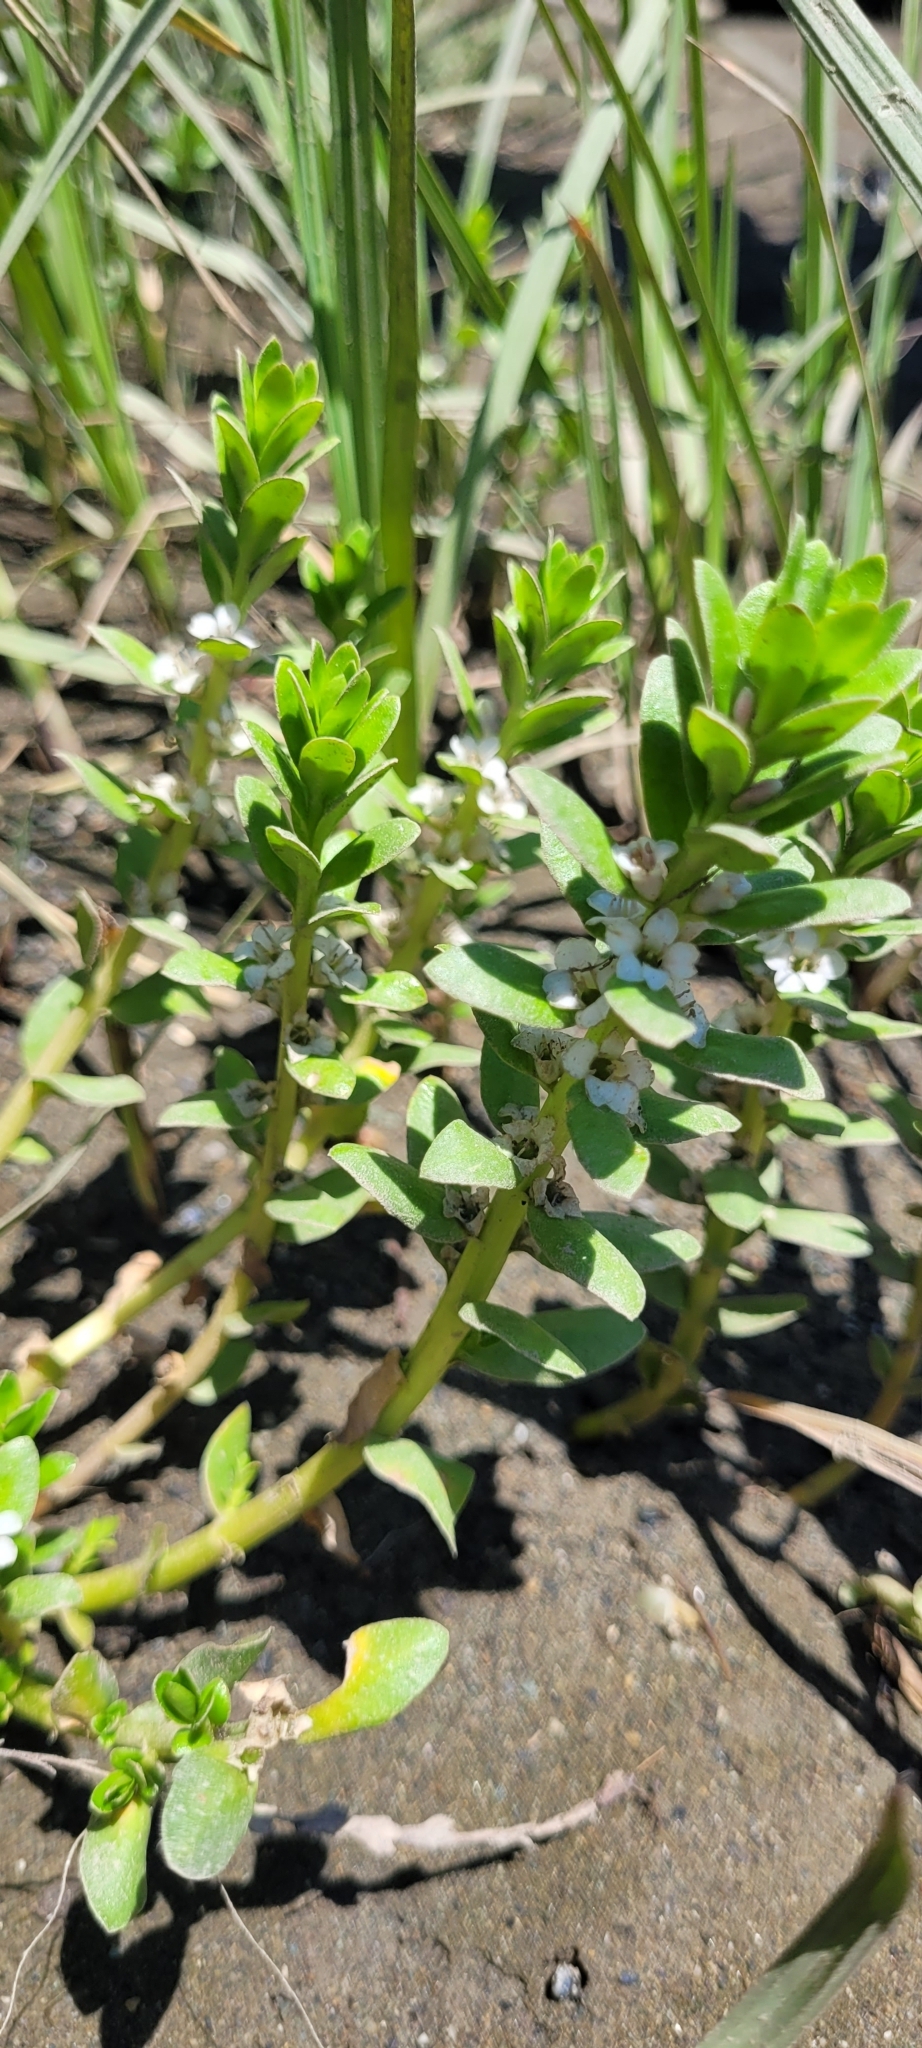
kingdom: Plantae
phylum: Tracheophyta
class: Magnoliopsida
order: Ericales
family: Primulaceae
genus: Lysimachia
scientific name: Lysimachia maritima
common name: Sea milkwort
